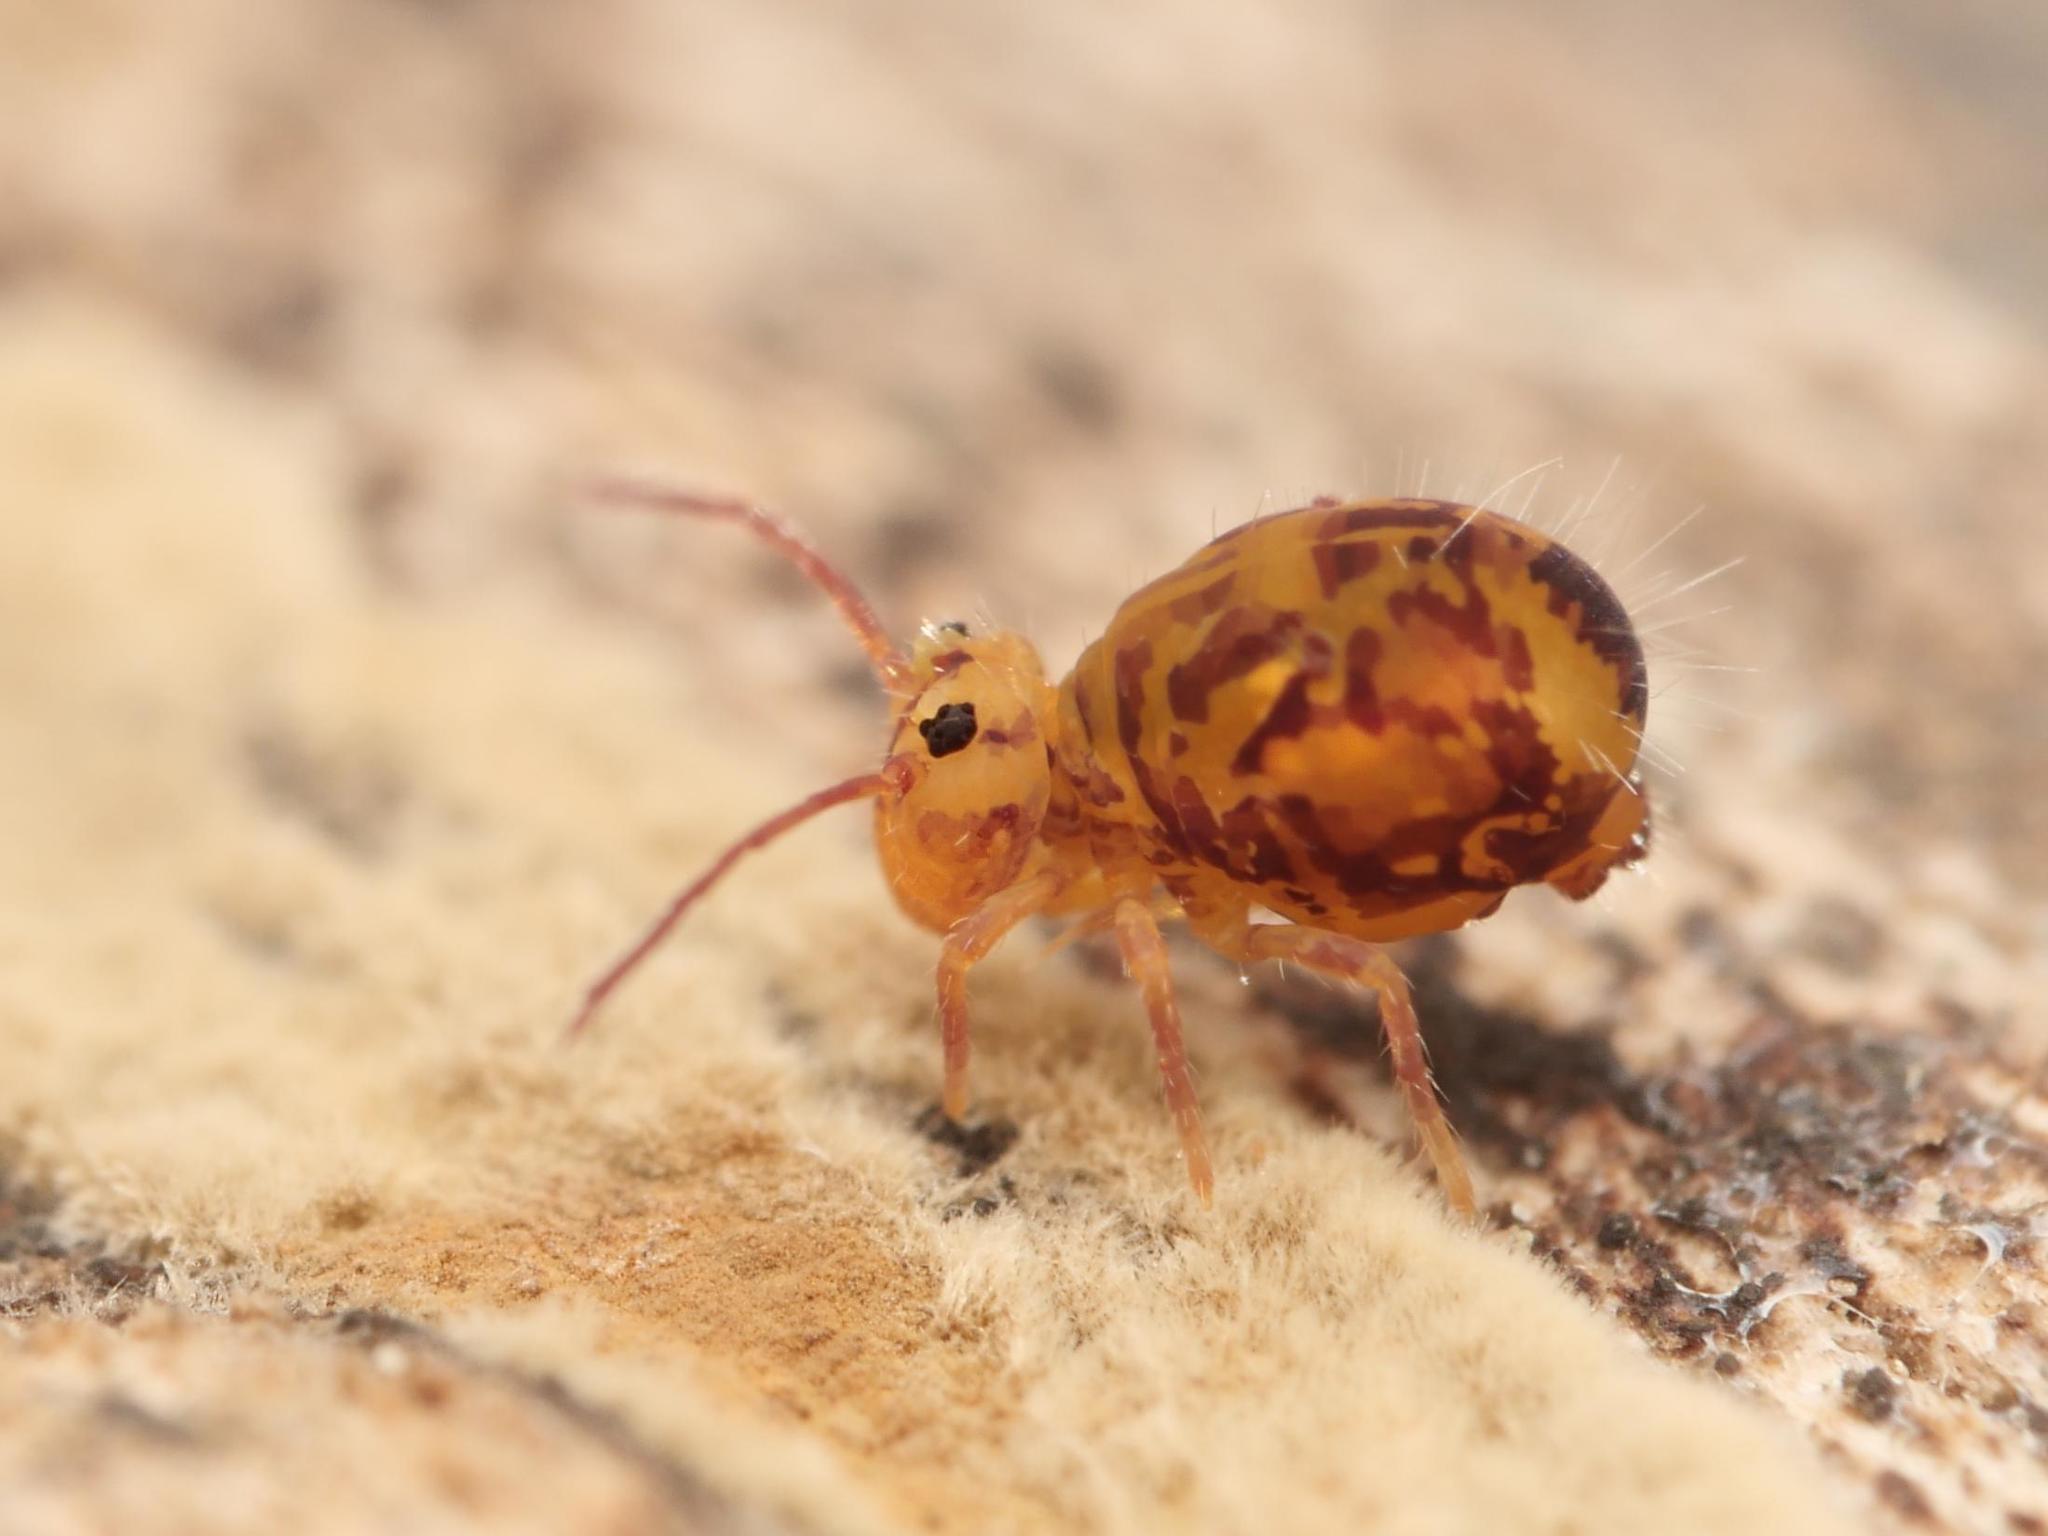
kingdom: Animalia
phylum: Arthropoda
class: Collembola
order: Symphypleona
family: Dicyrtomidae
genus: Dicyrtomina
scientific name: Dicyrtomina ornata
